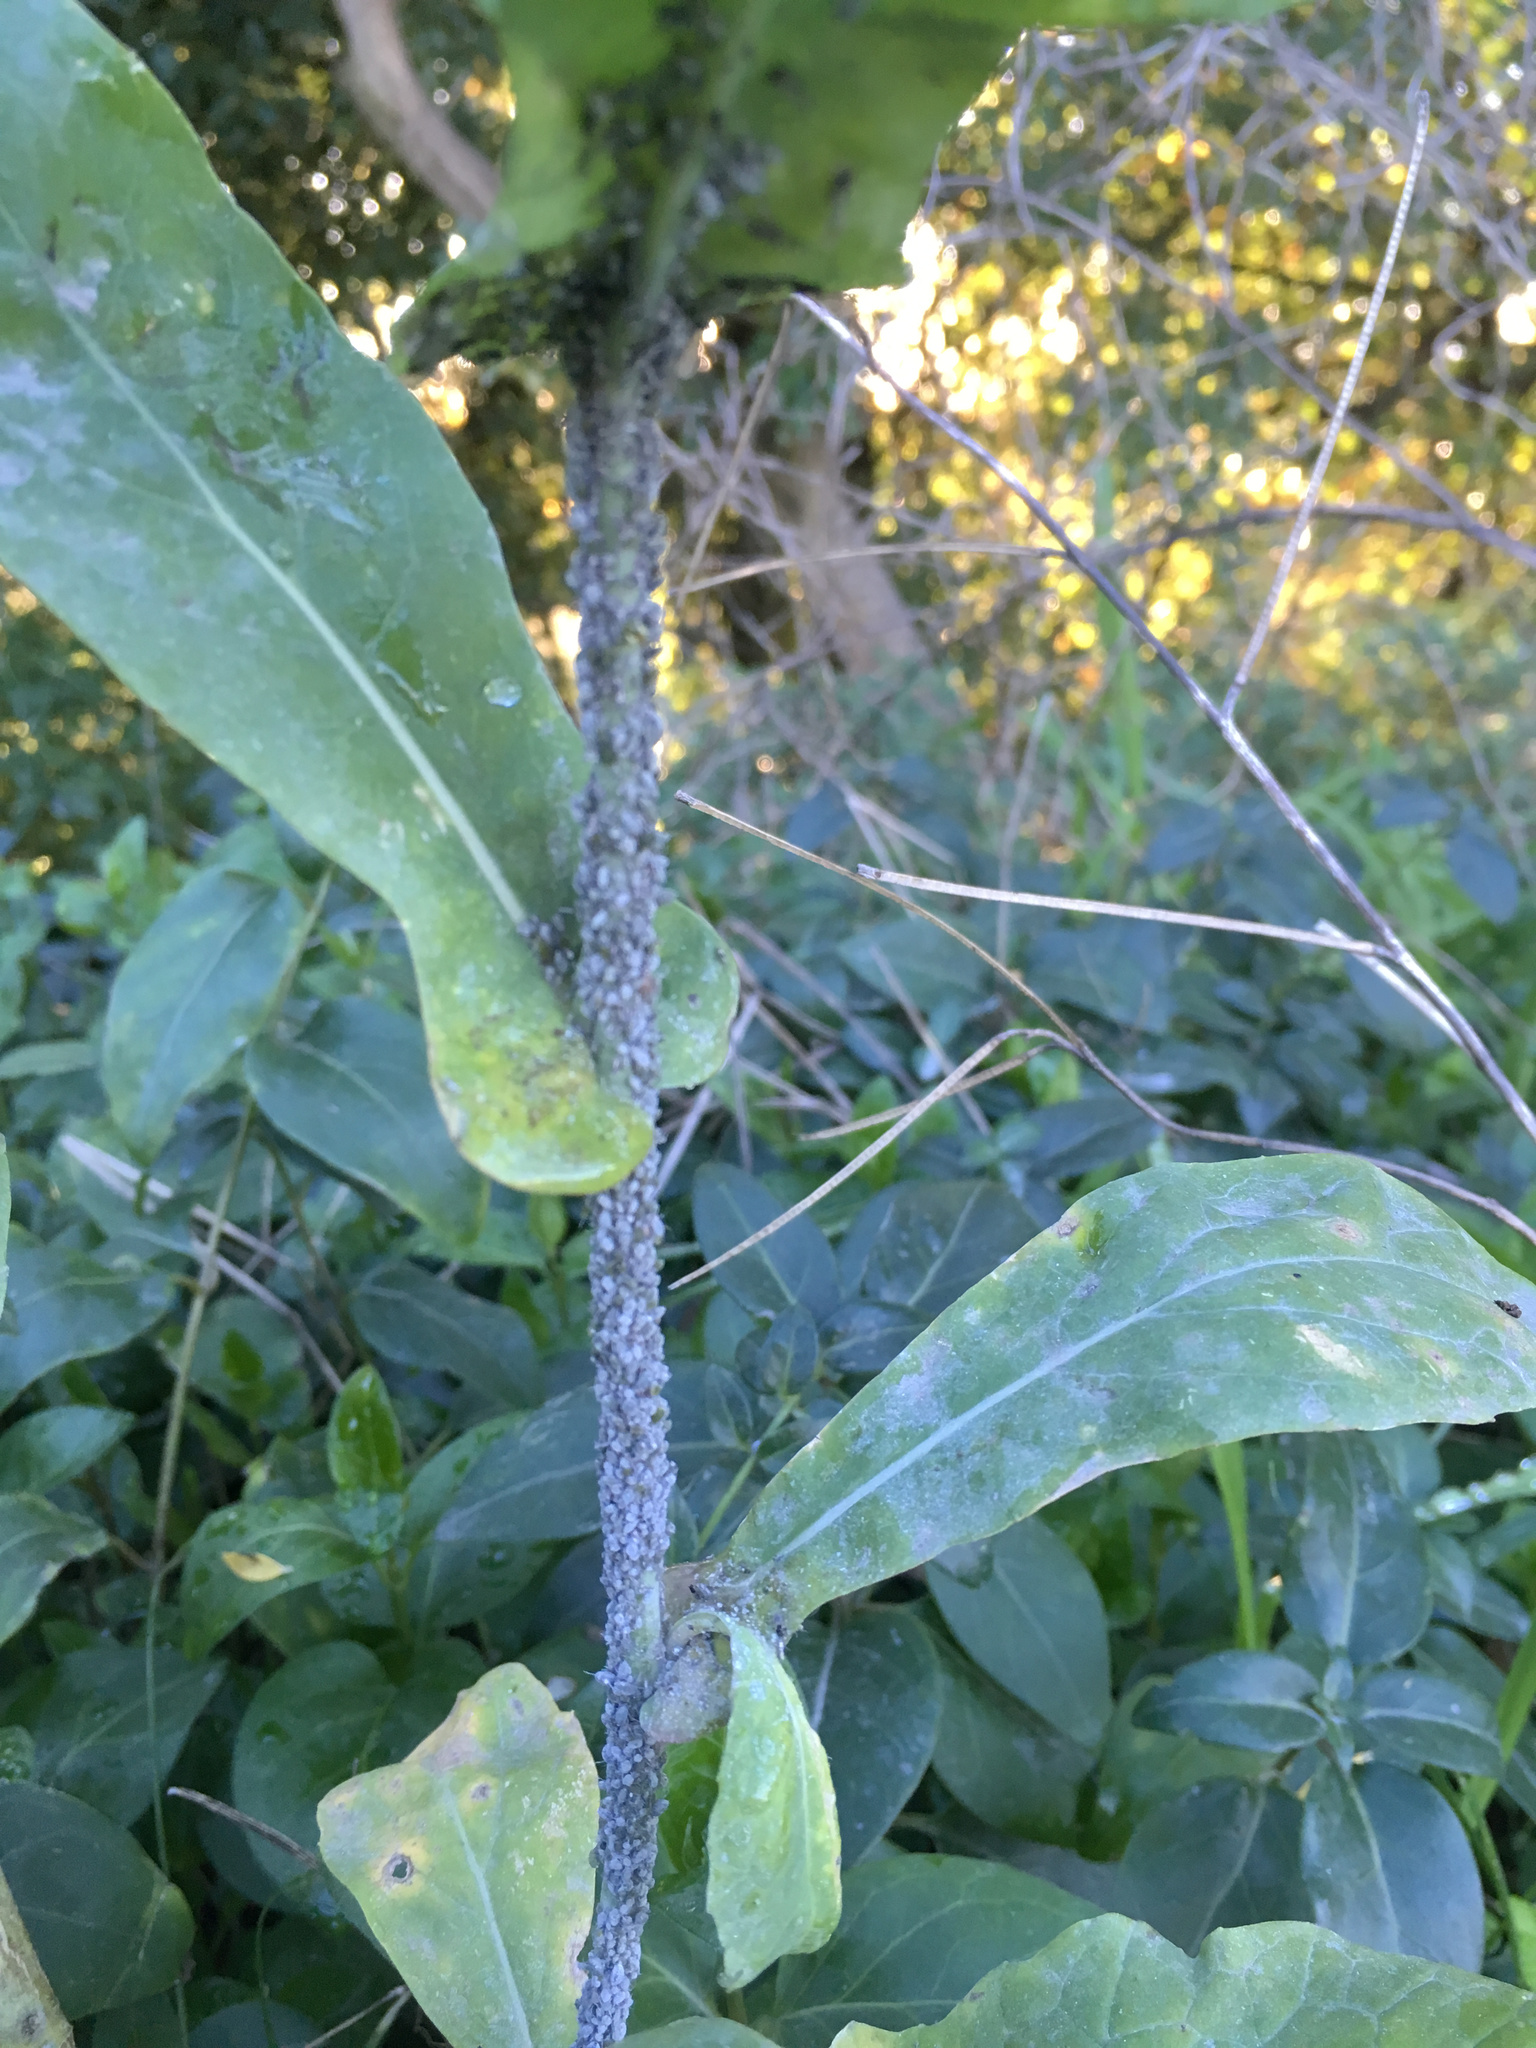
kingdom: Animalia
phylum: Arthropoda
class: Insecta
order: Hemiptera
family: Aphididae
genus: Brevicoryne
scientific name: Brevicoryne brassicae
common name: Cabbage aphid
